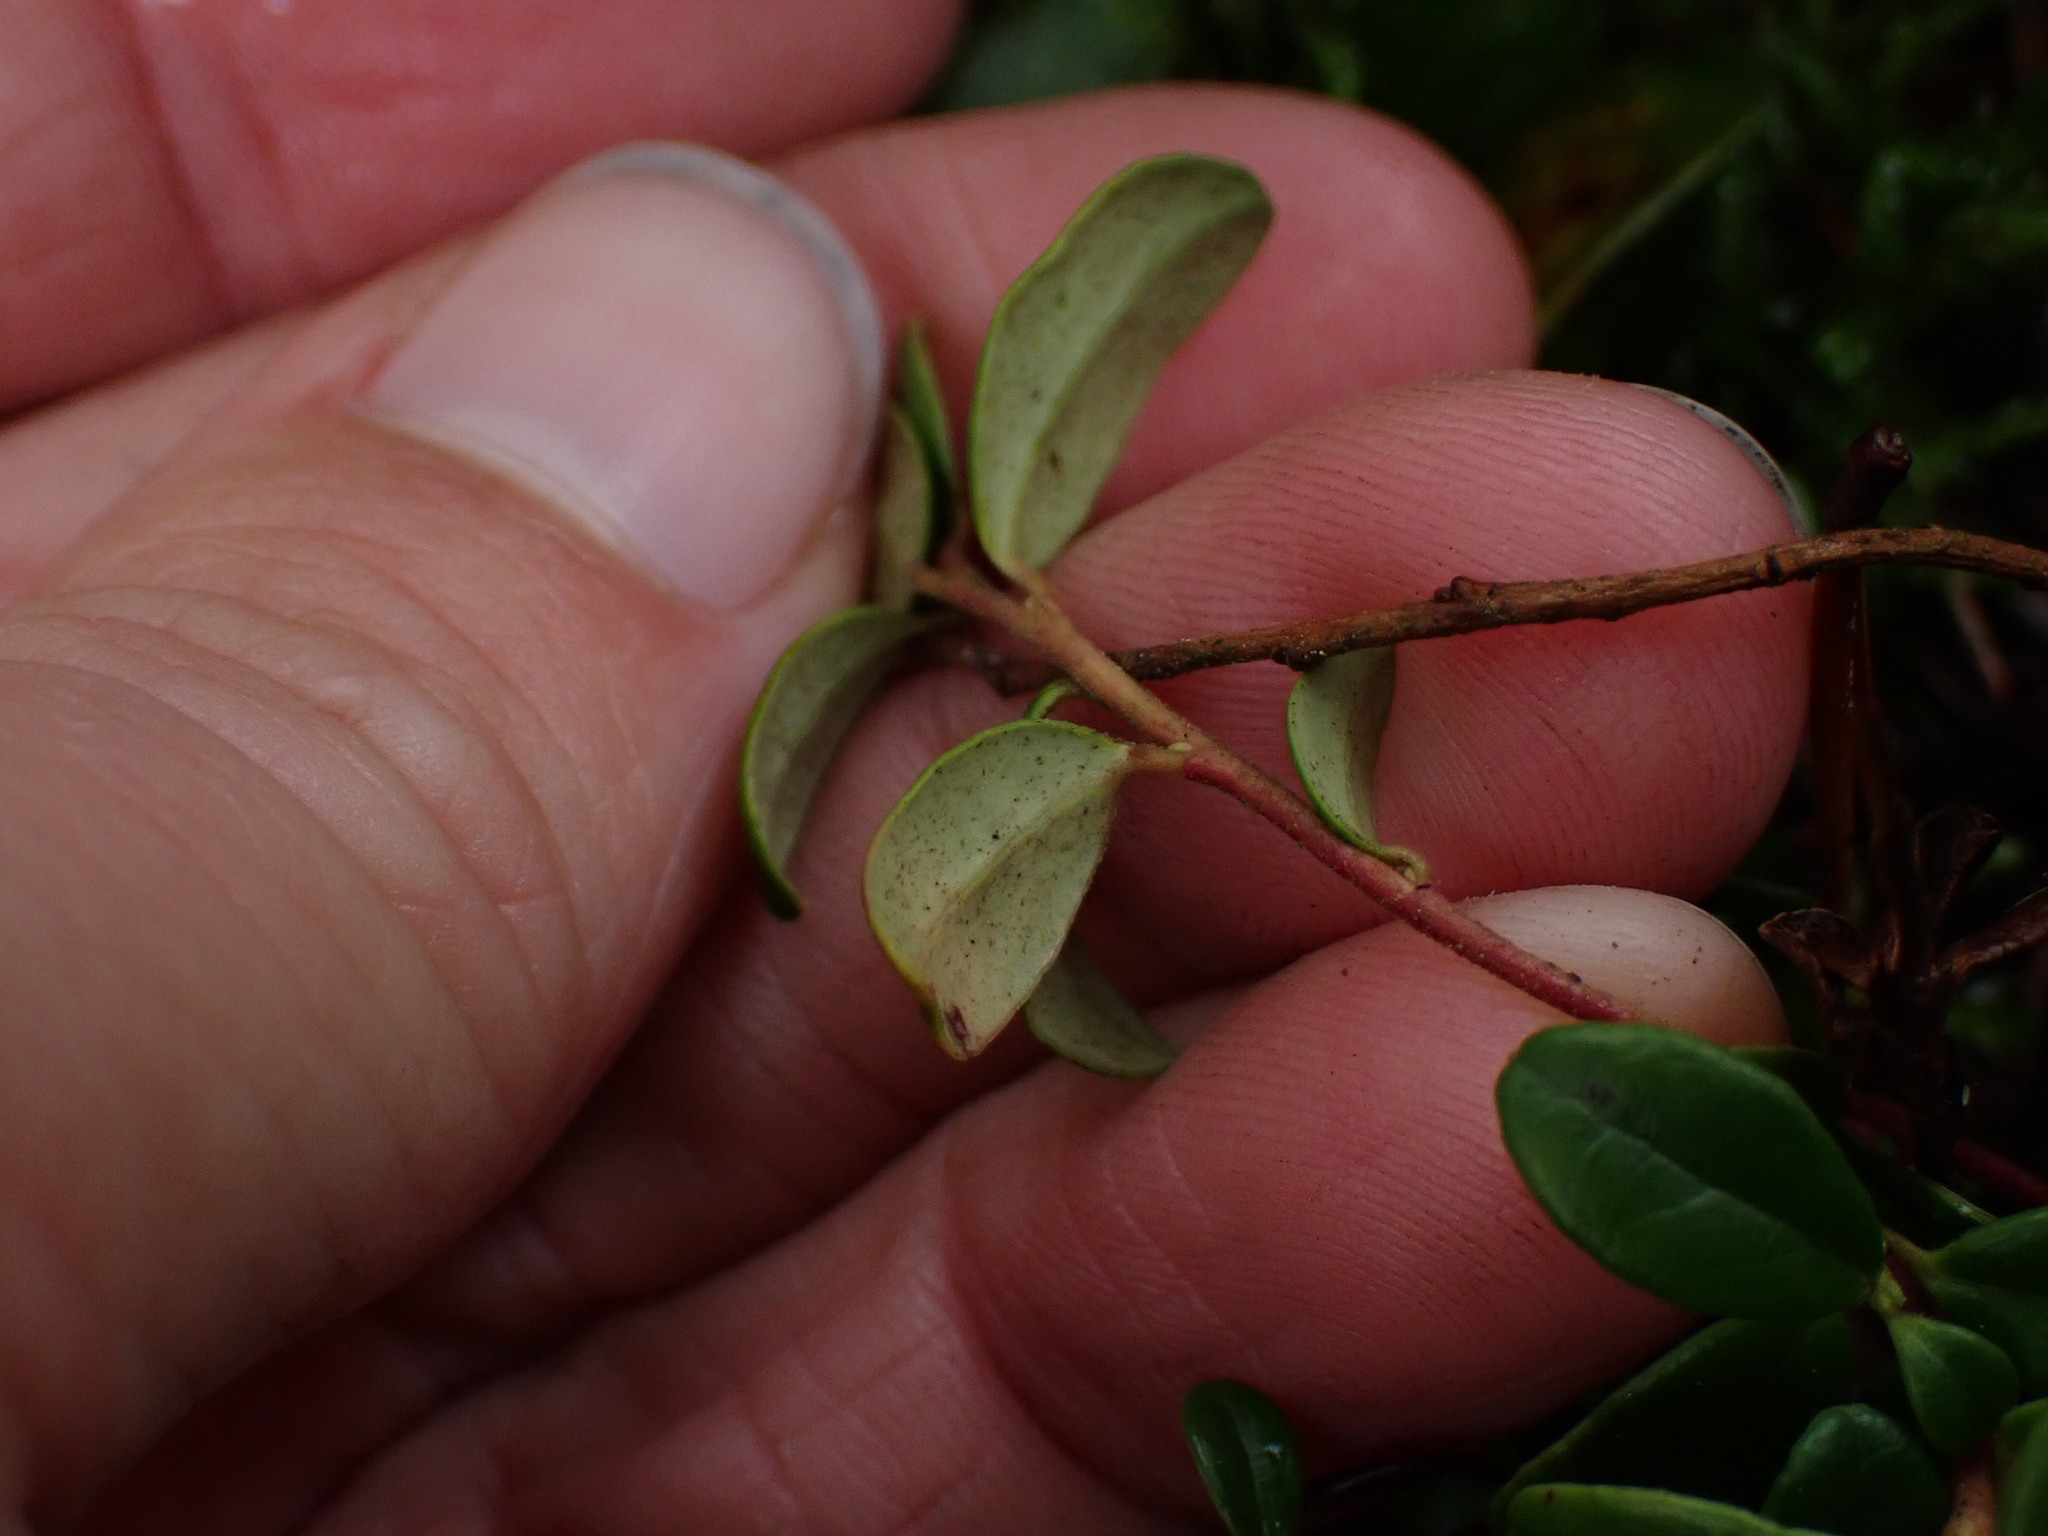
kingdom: Plantae
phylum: Tracheophyta
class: Magnoliopsida
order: Ericales
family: Ericaceae
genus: Vaccinium
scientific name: Vaccinium vitis-idaea
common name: Cowberry
